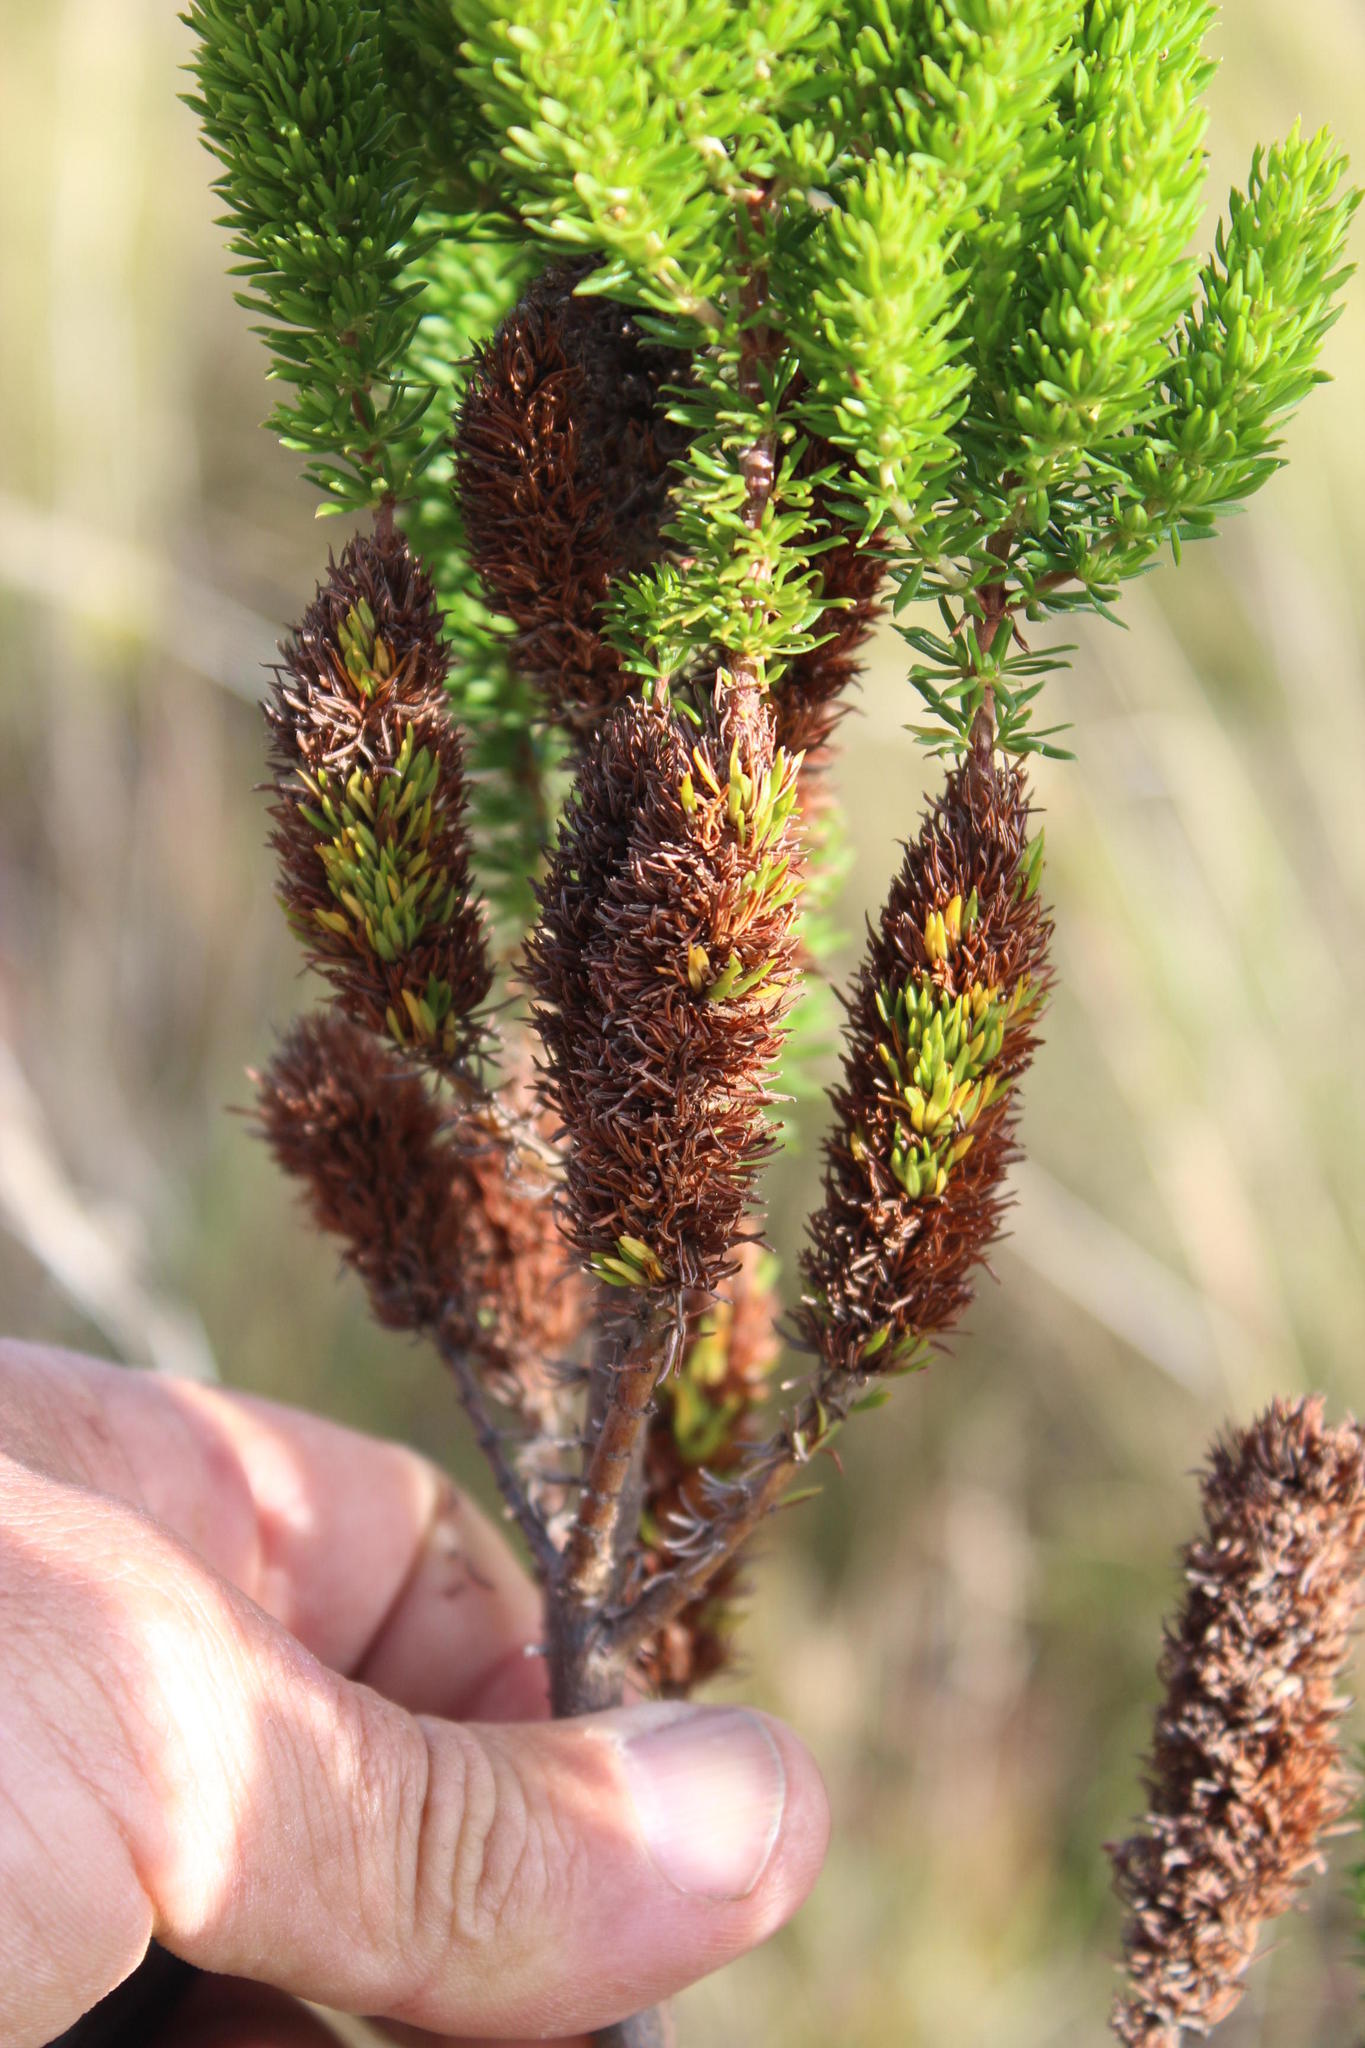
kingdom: Plantae
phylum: Tracheophyta
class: Magnoliopsida
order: Gentianales
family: Rubiaceae
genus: Anthospermum
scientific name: Anthospermum aethiopicum
